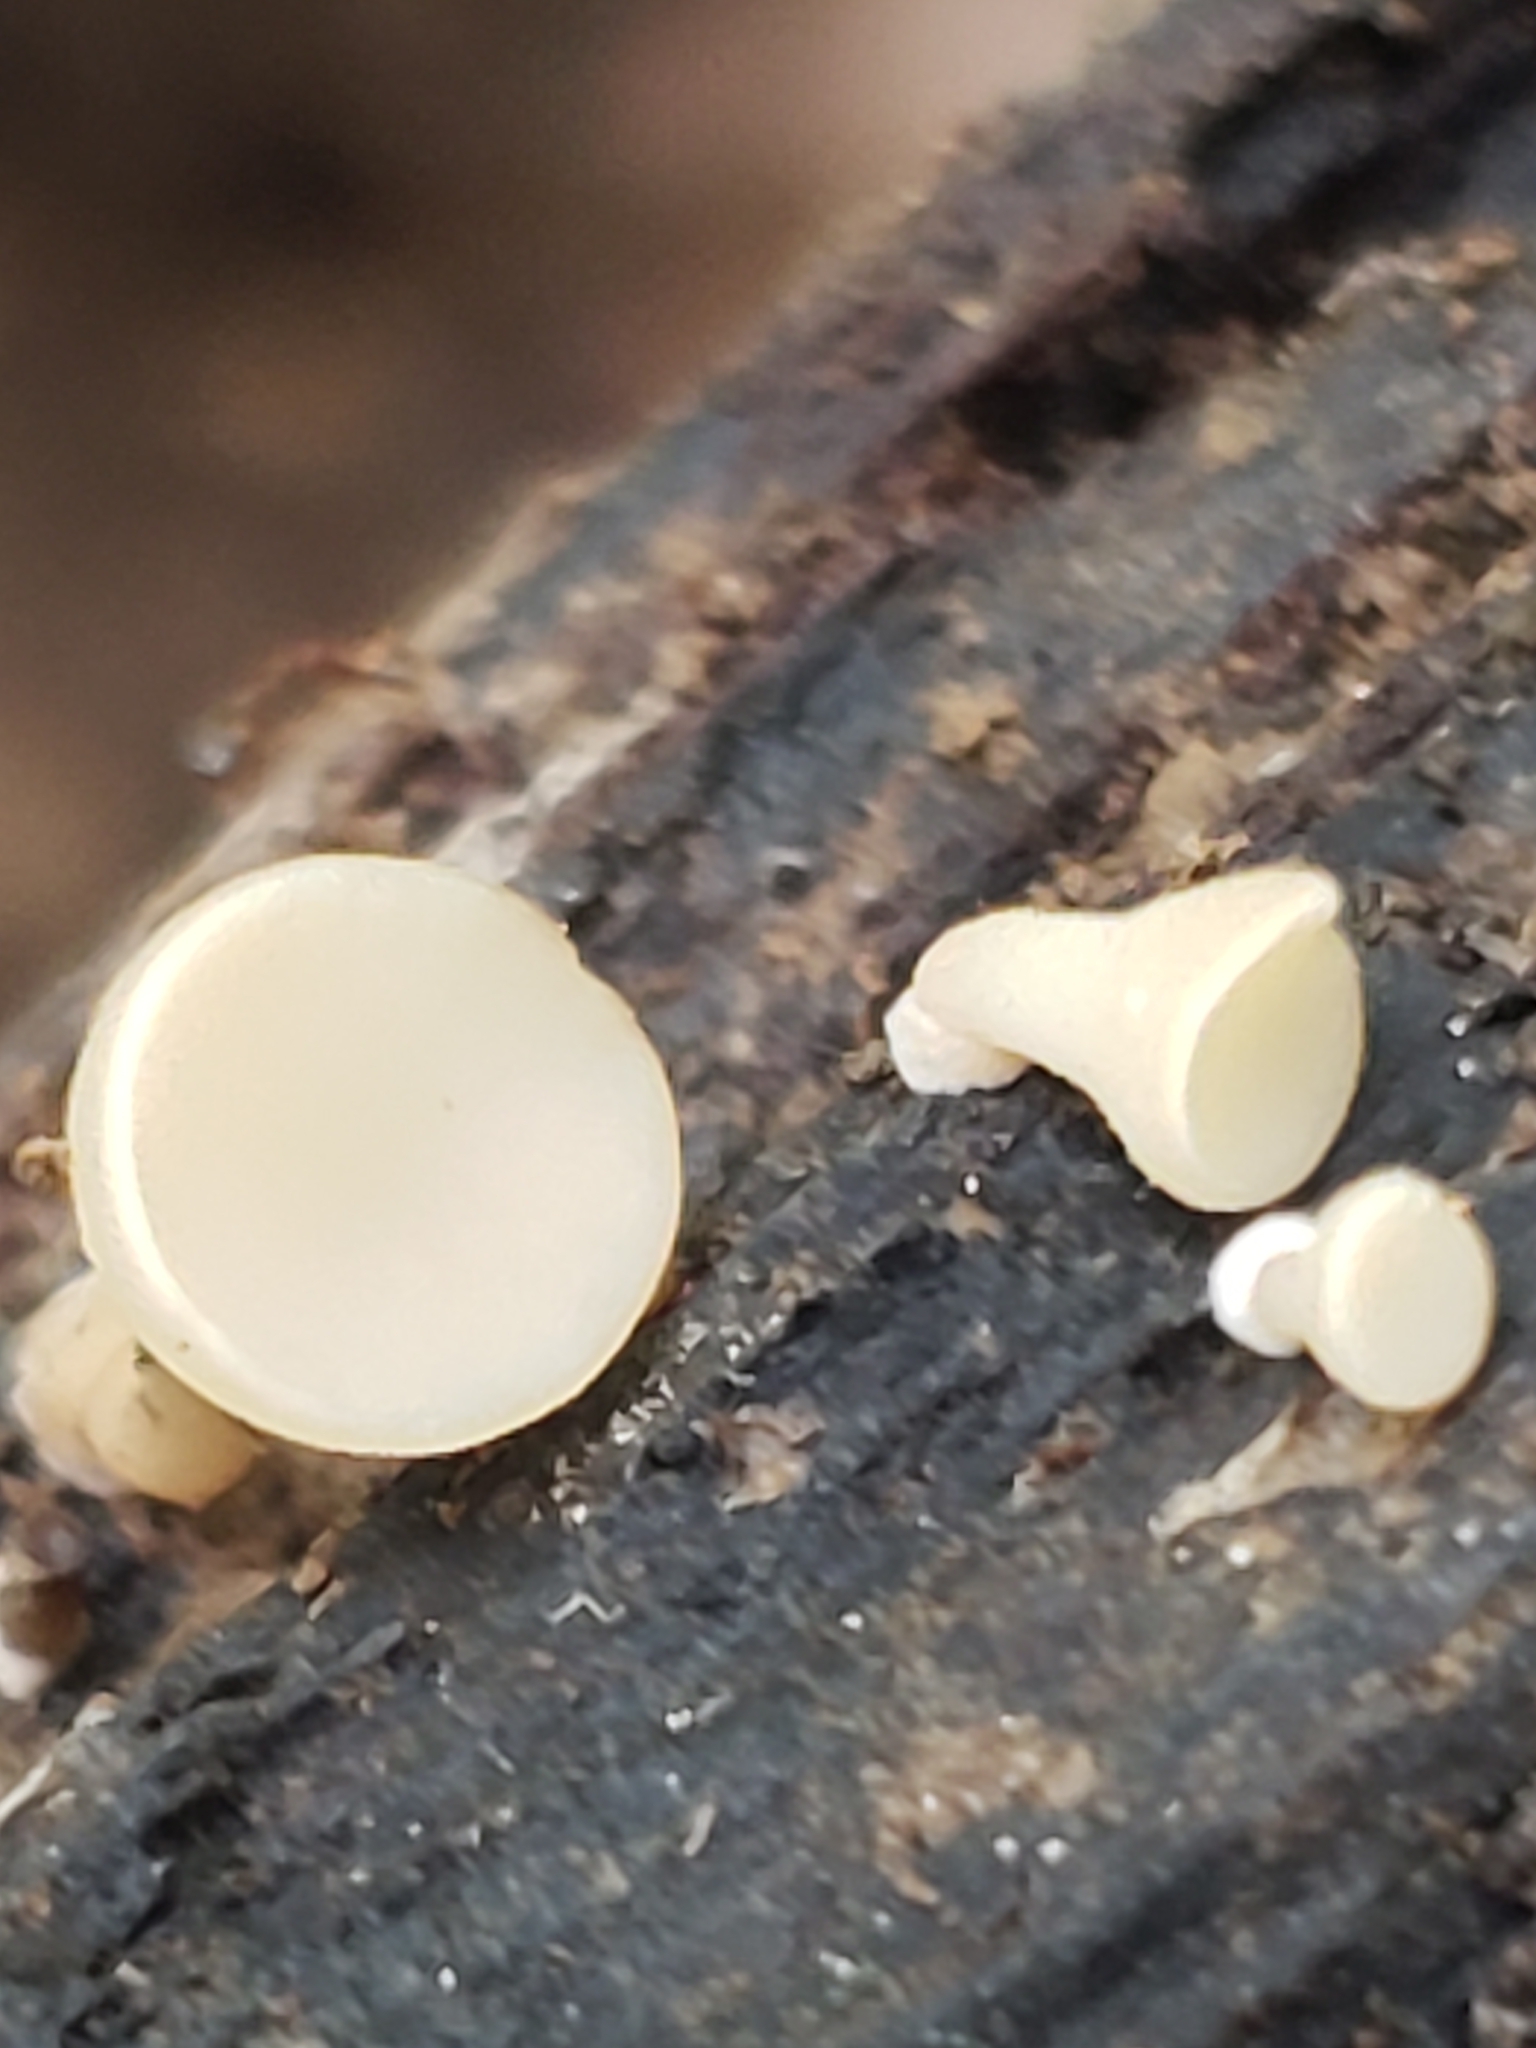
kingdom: Fungi
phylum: Ascomycota
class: Leotiomycetes
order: Helotiales
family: Helotiaceae
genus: Tatraea
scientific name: Tatraea macrospora
